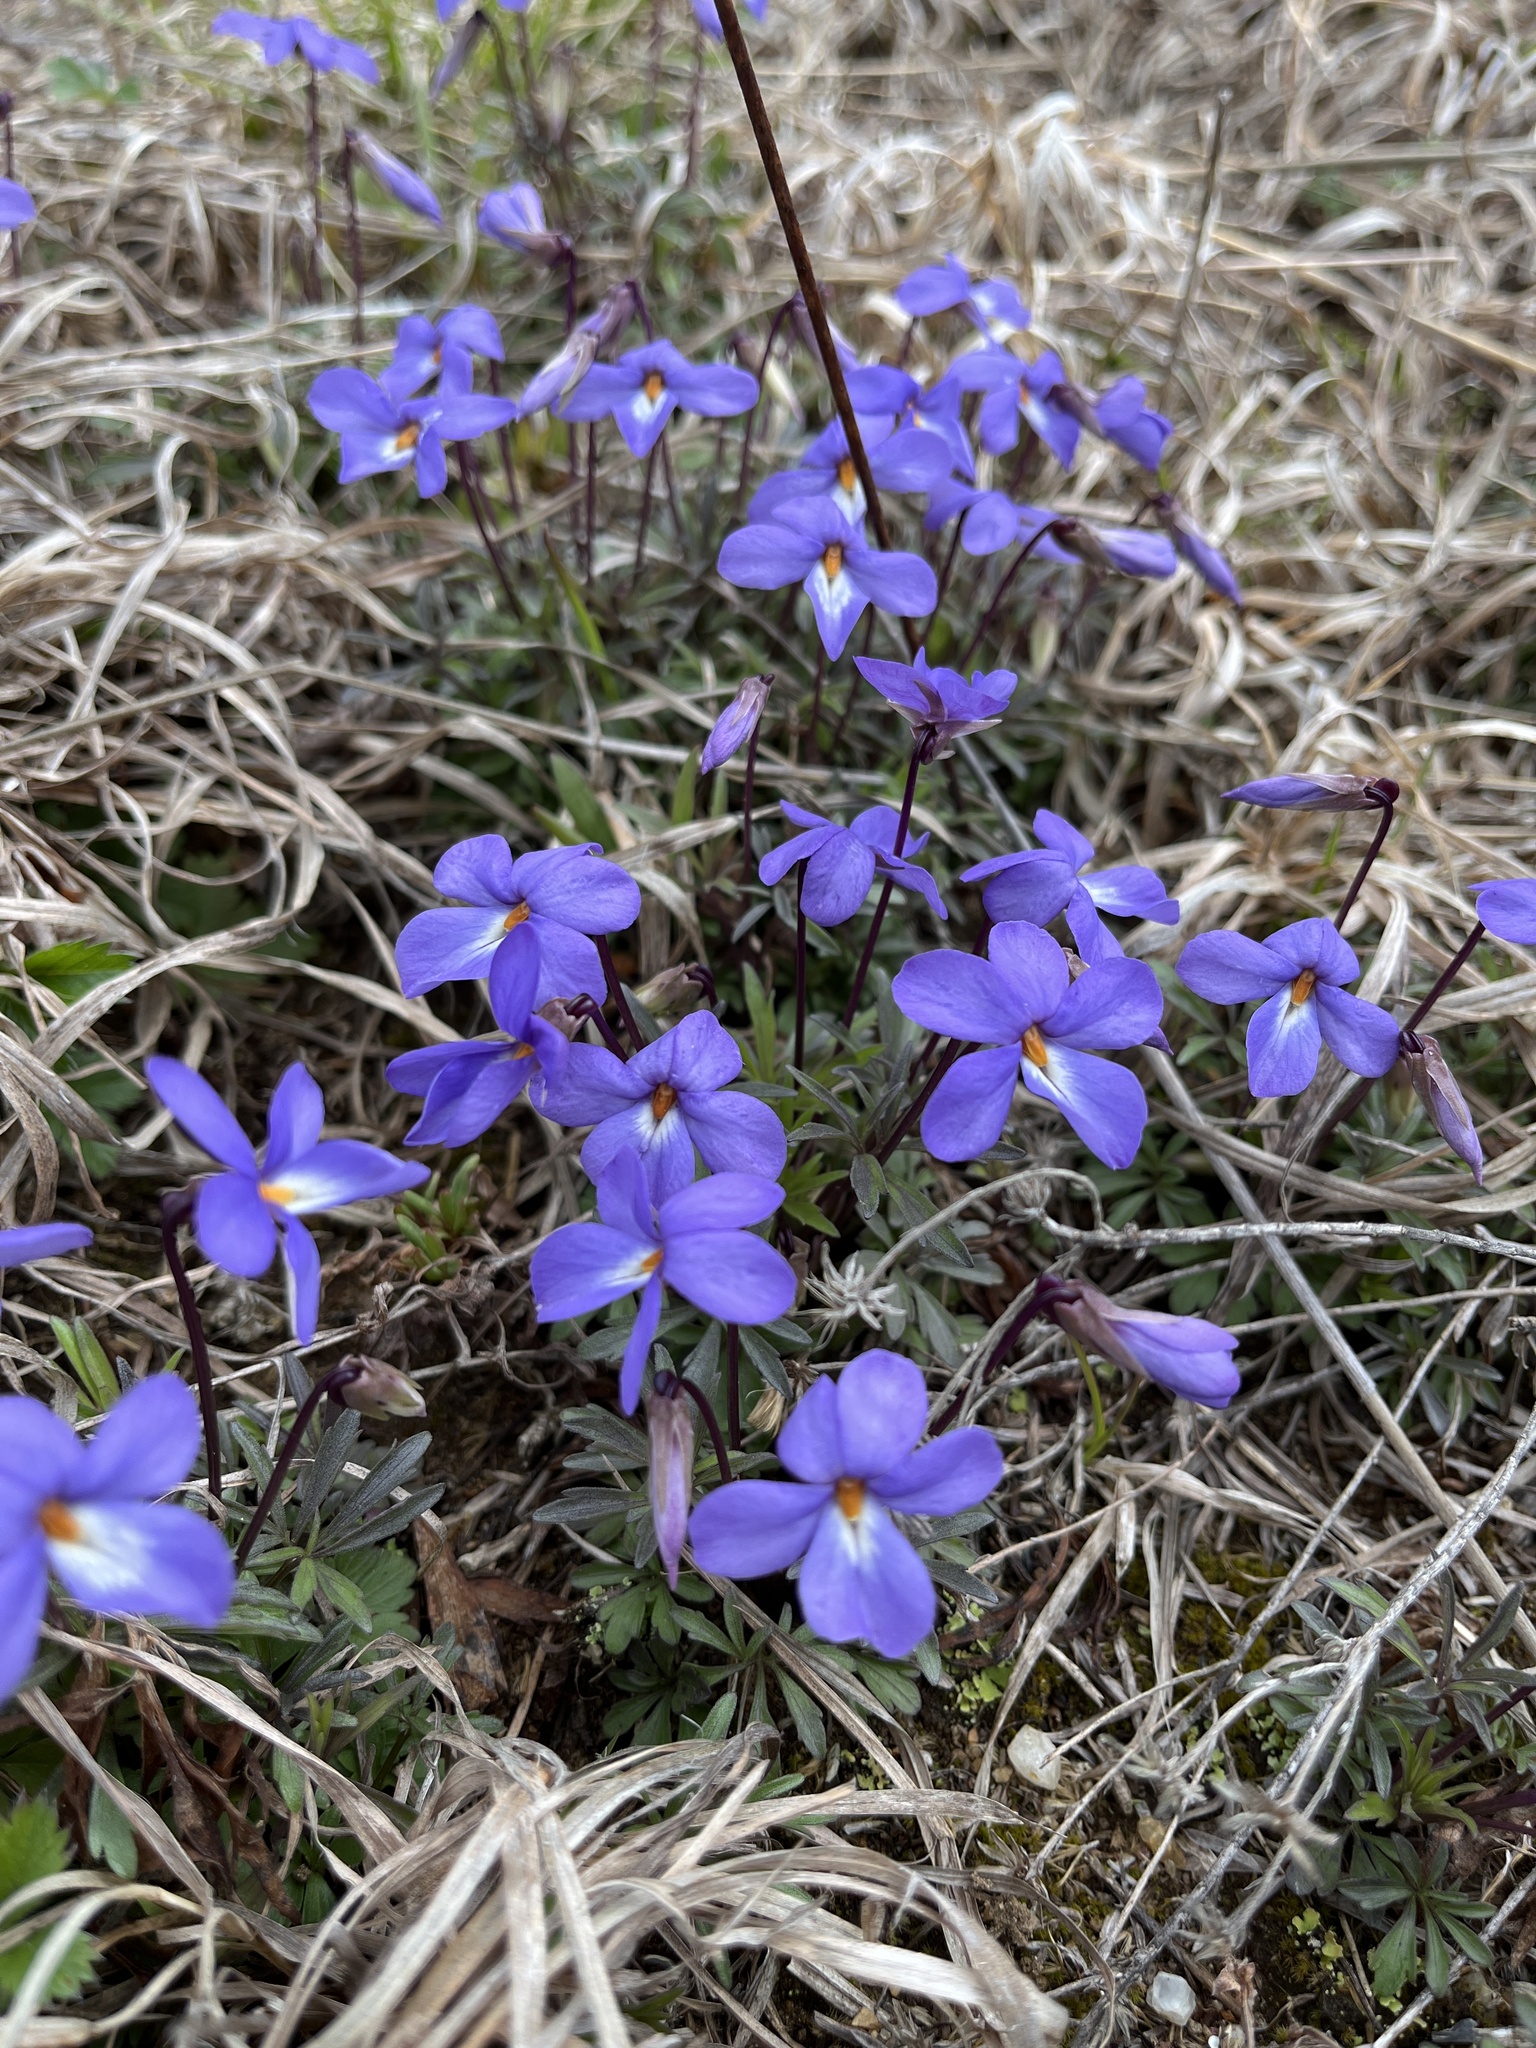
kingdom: Plantae
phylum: Tracheophyta
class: Magnoliopsida
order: Malpighiales
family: Violaceae
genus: Viola
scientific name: Viola pedata
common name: Pansy violet
